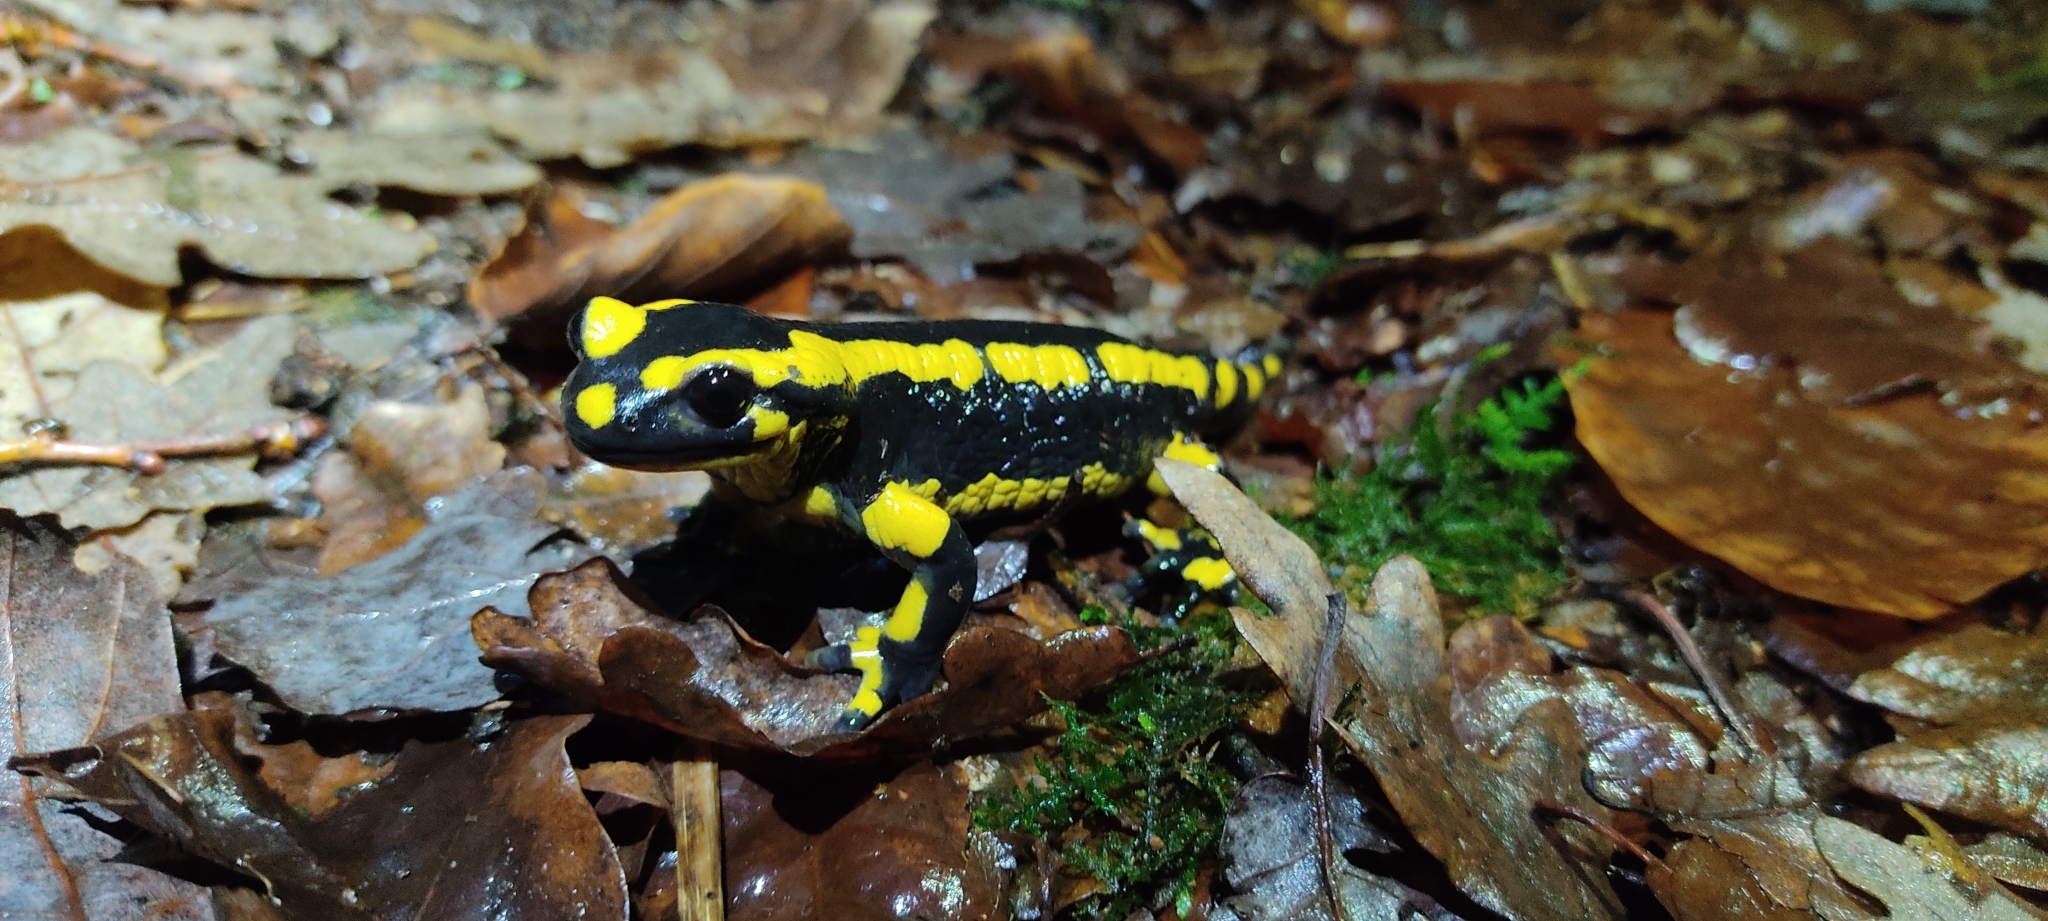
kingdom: Animalia
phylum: Chordata
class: Amphibia
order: Caudata
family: Salamandridae
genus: Salamandra
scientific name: Salamandra salamandra
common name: Fire salamander
